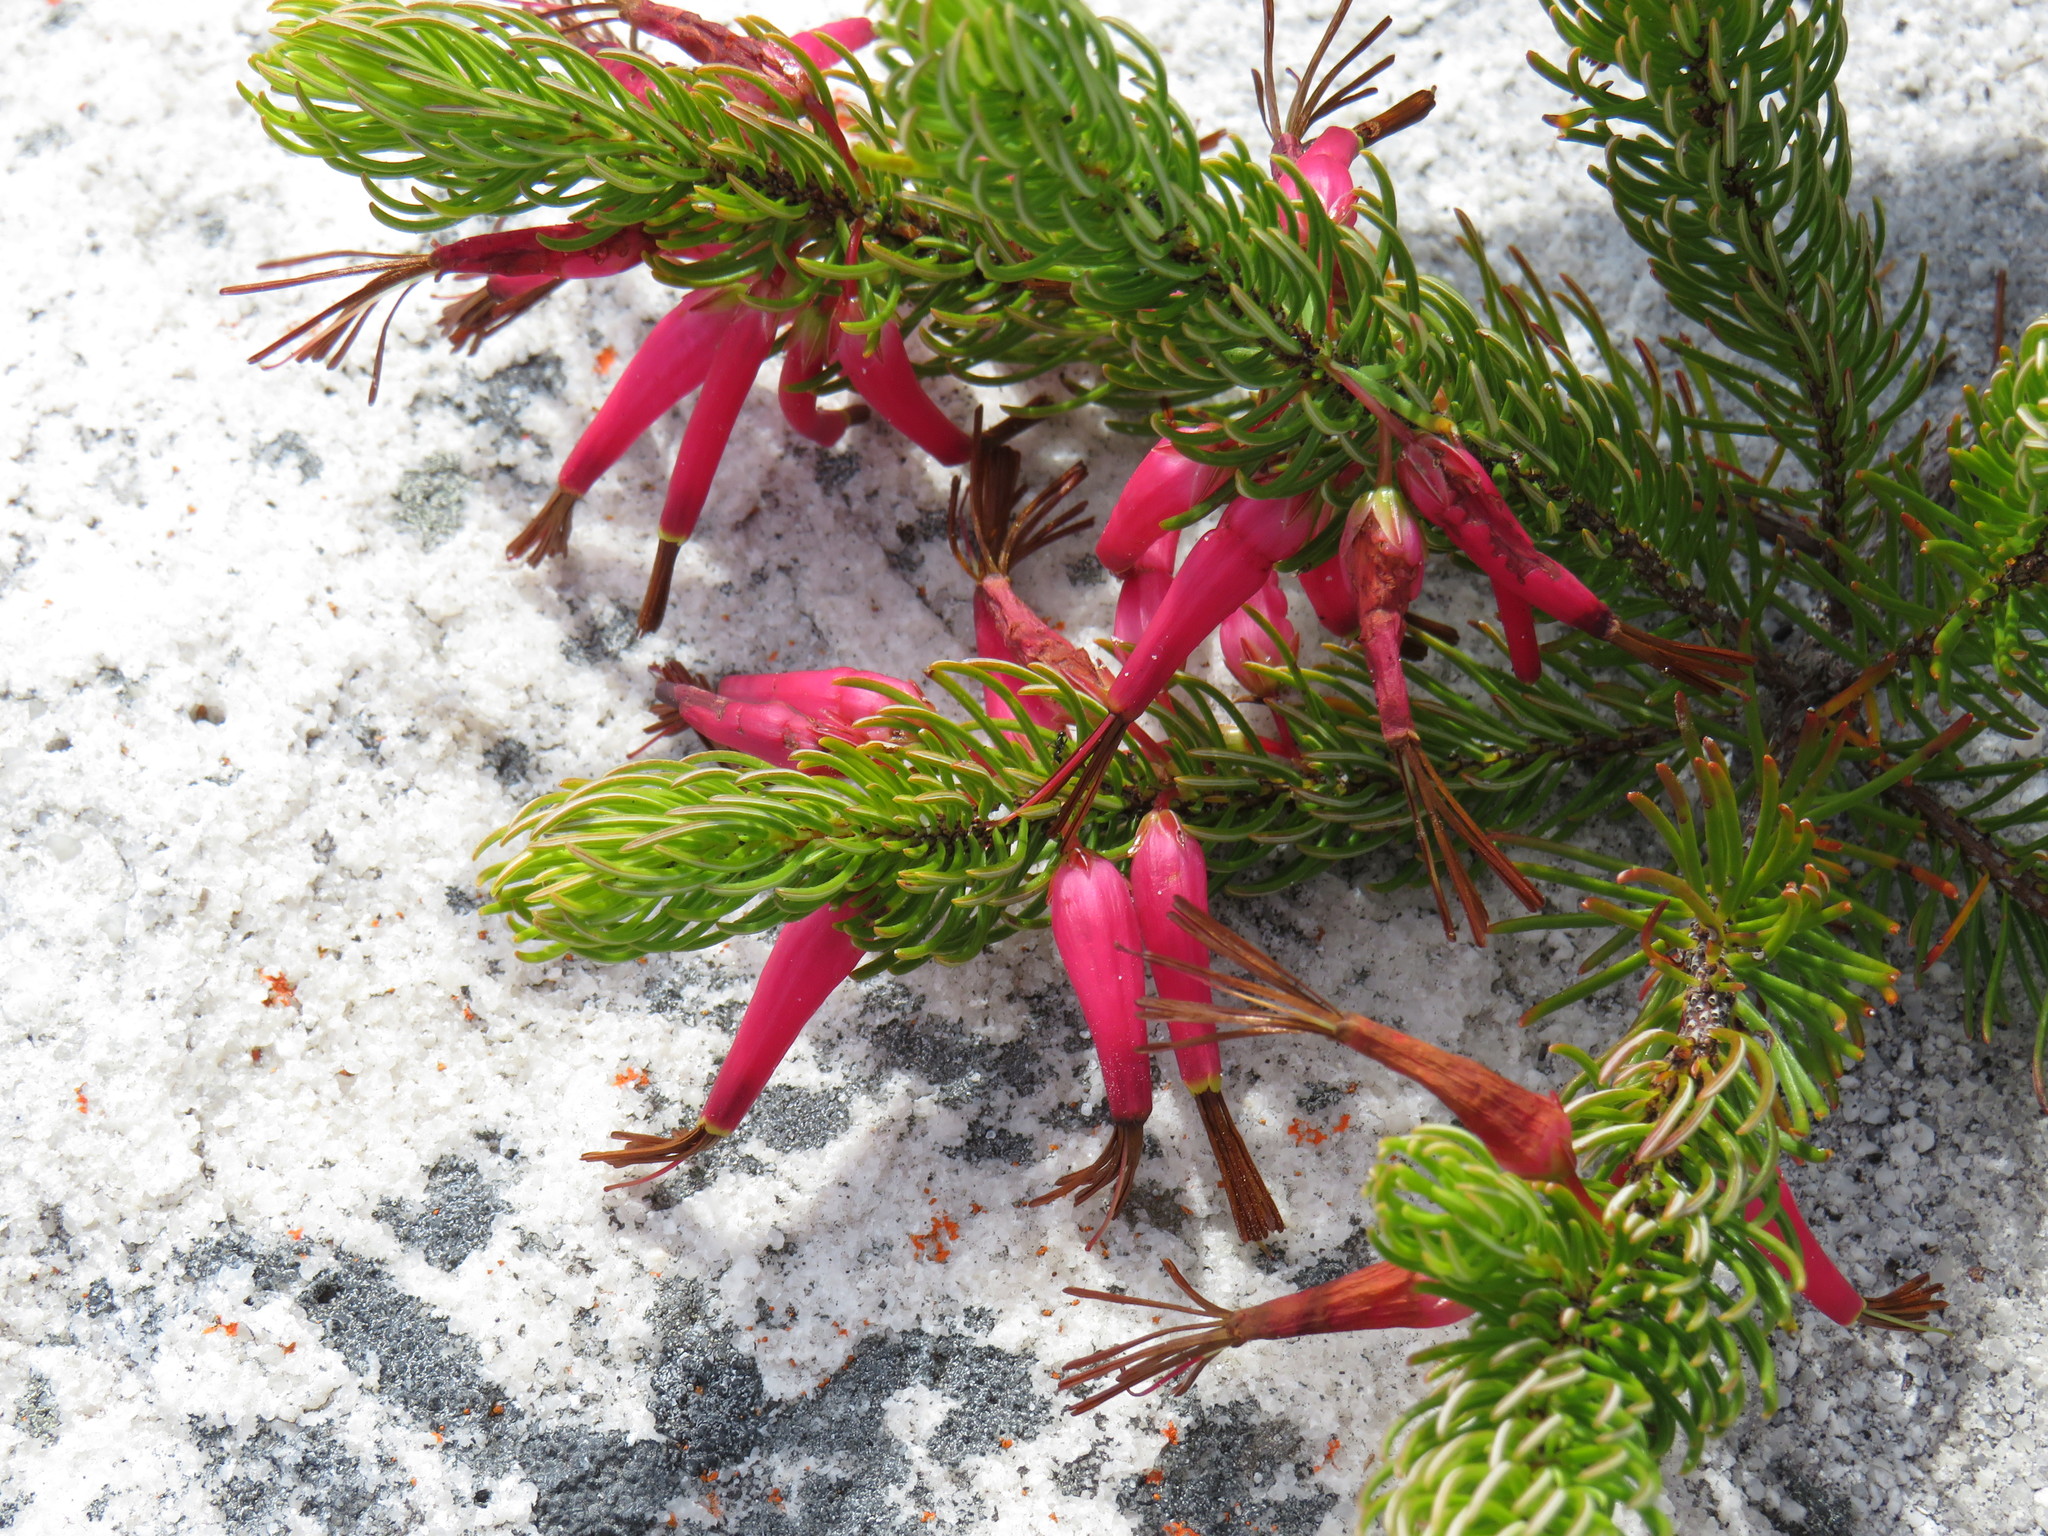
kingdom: Plantae
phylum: Tracheophyta
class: Magnoliopsida
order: Ericales
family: Ericaceae
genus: Erica
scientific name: Erica plukenetii
